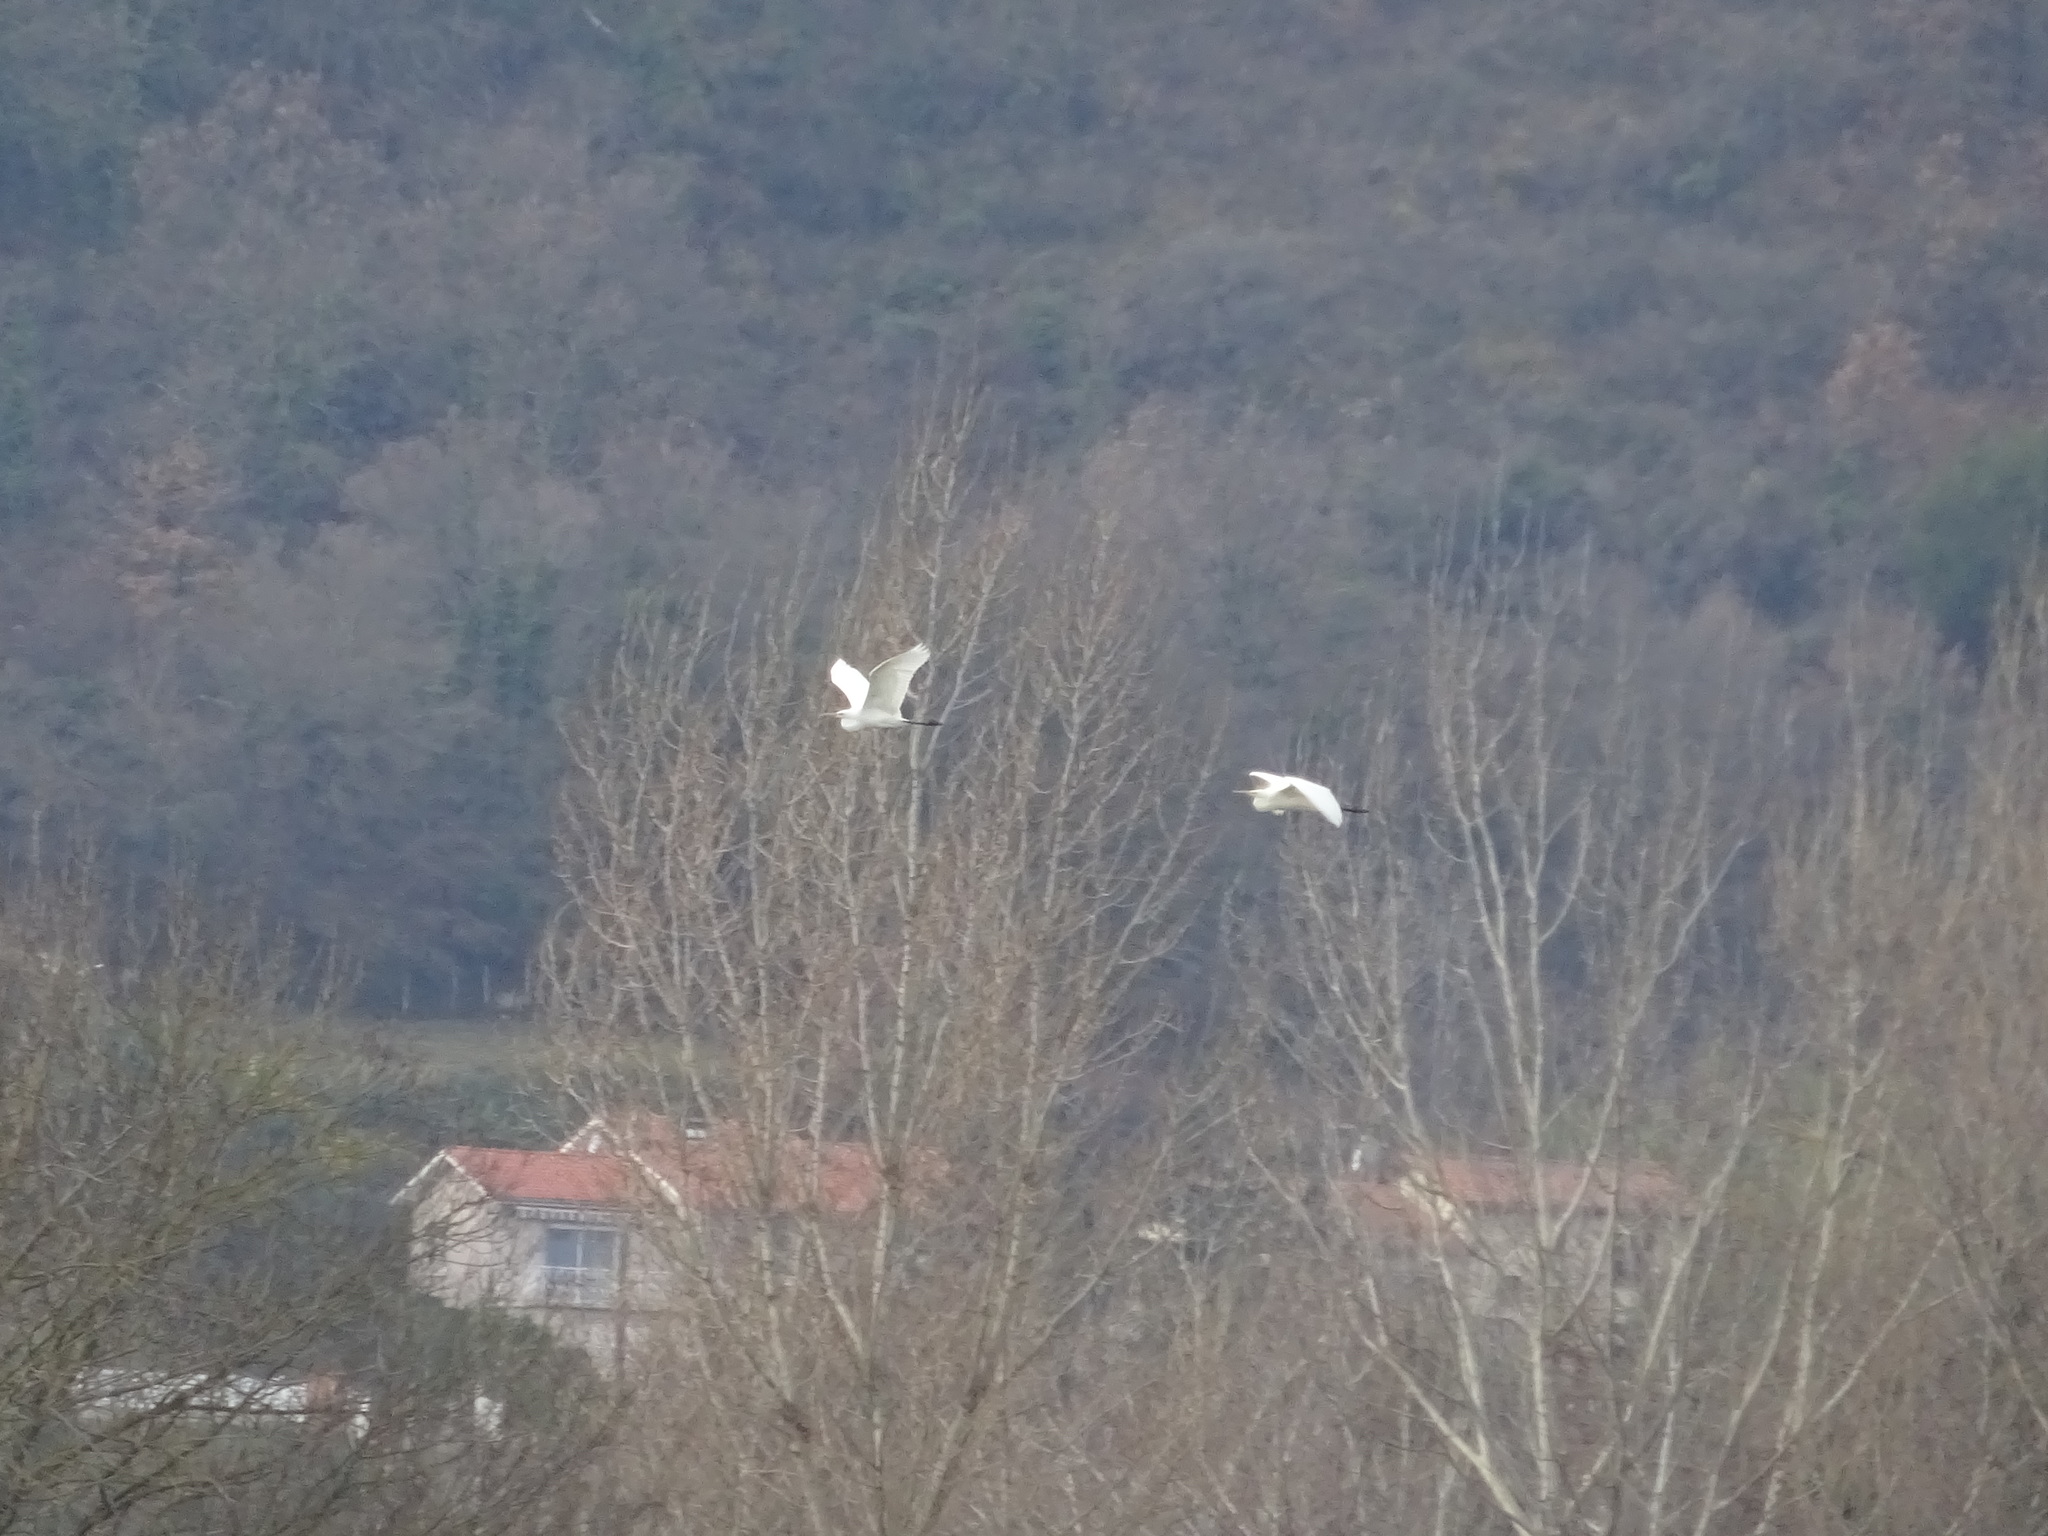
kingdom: Animalia
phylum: Chordata
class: Aves
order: Pelecaniformes
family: Ardeidae
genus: Ardea
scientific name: Ardea alba
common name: Great egret
